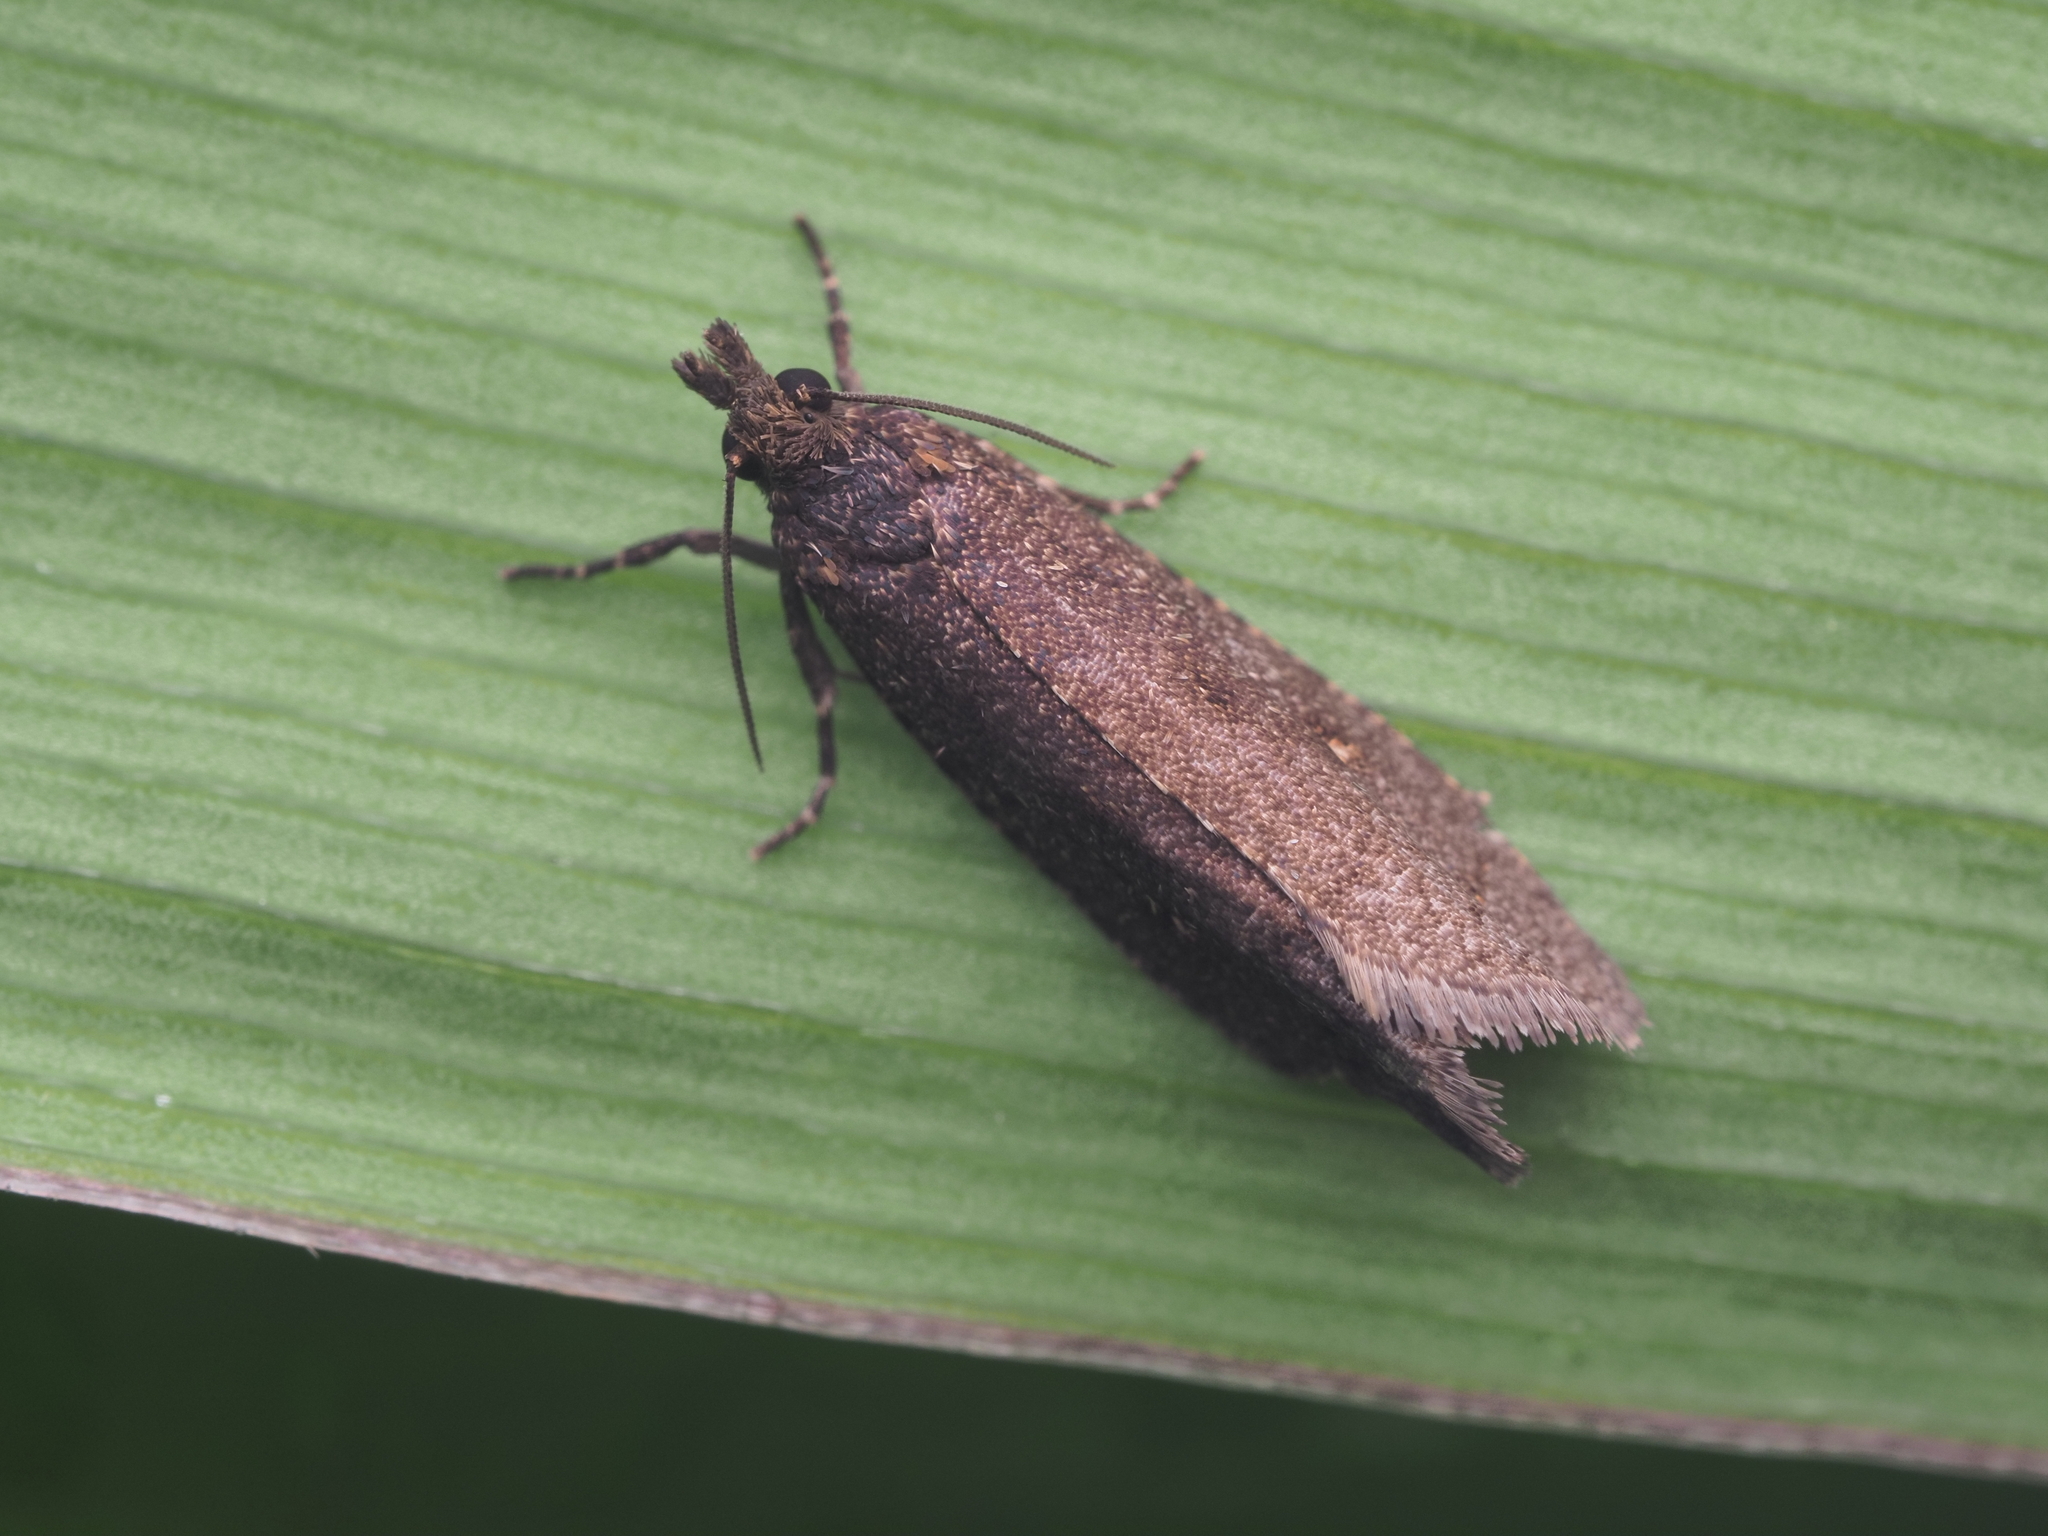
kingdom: Animalia
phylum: Arthropoda
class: Insecta
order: Lepidoptera
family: Tortricidae
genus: Cryptaspasma
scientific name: Cryptaspasma querula
